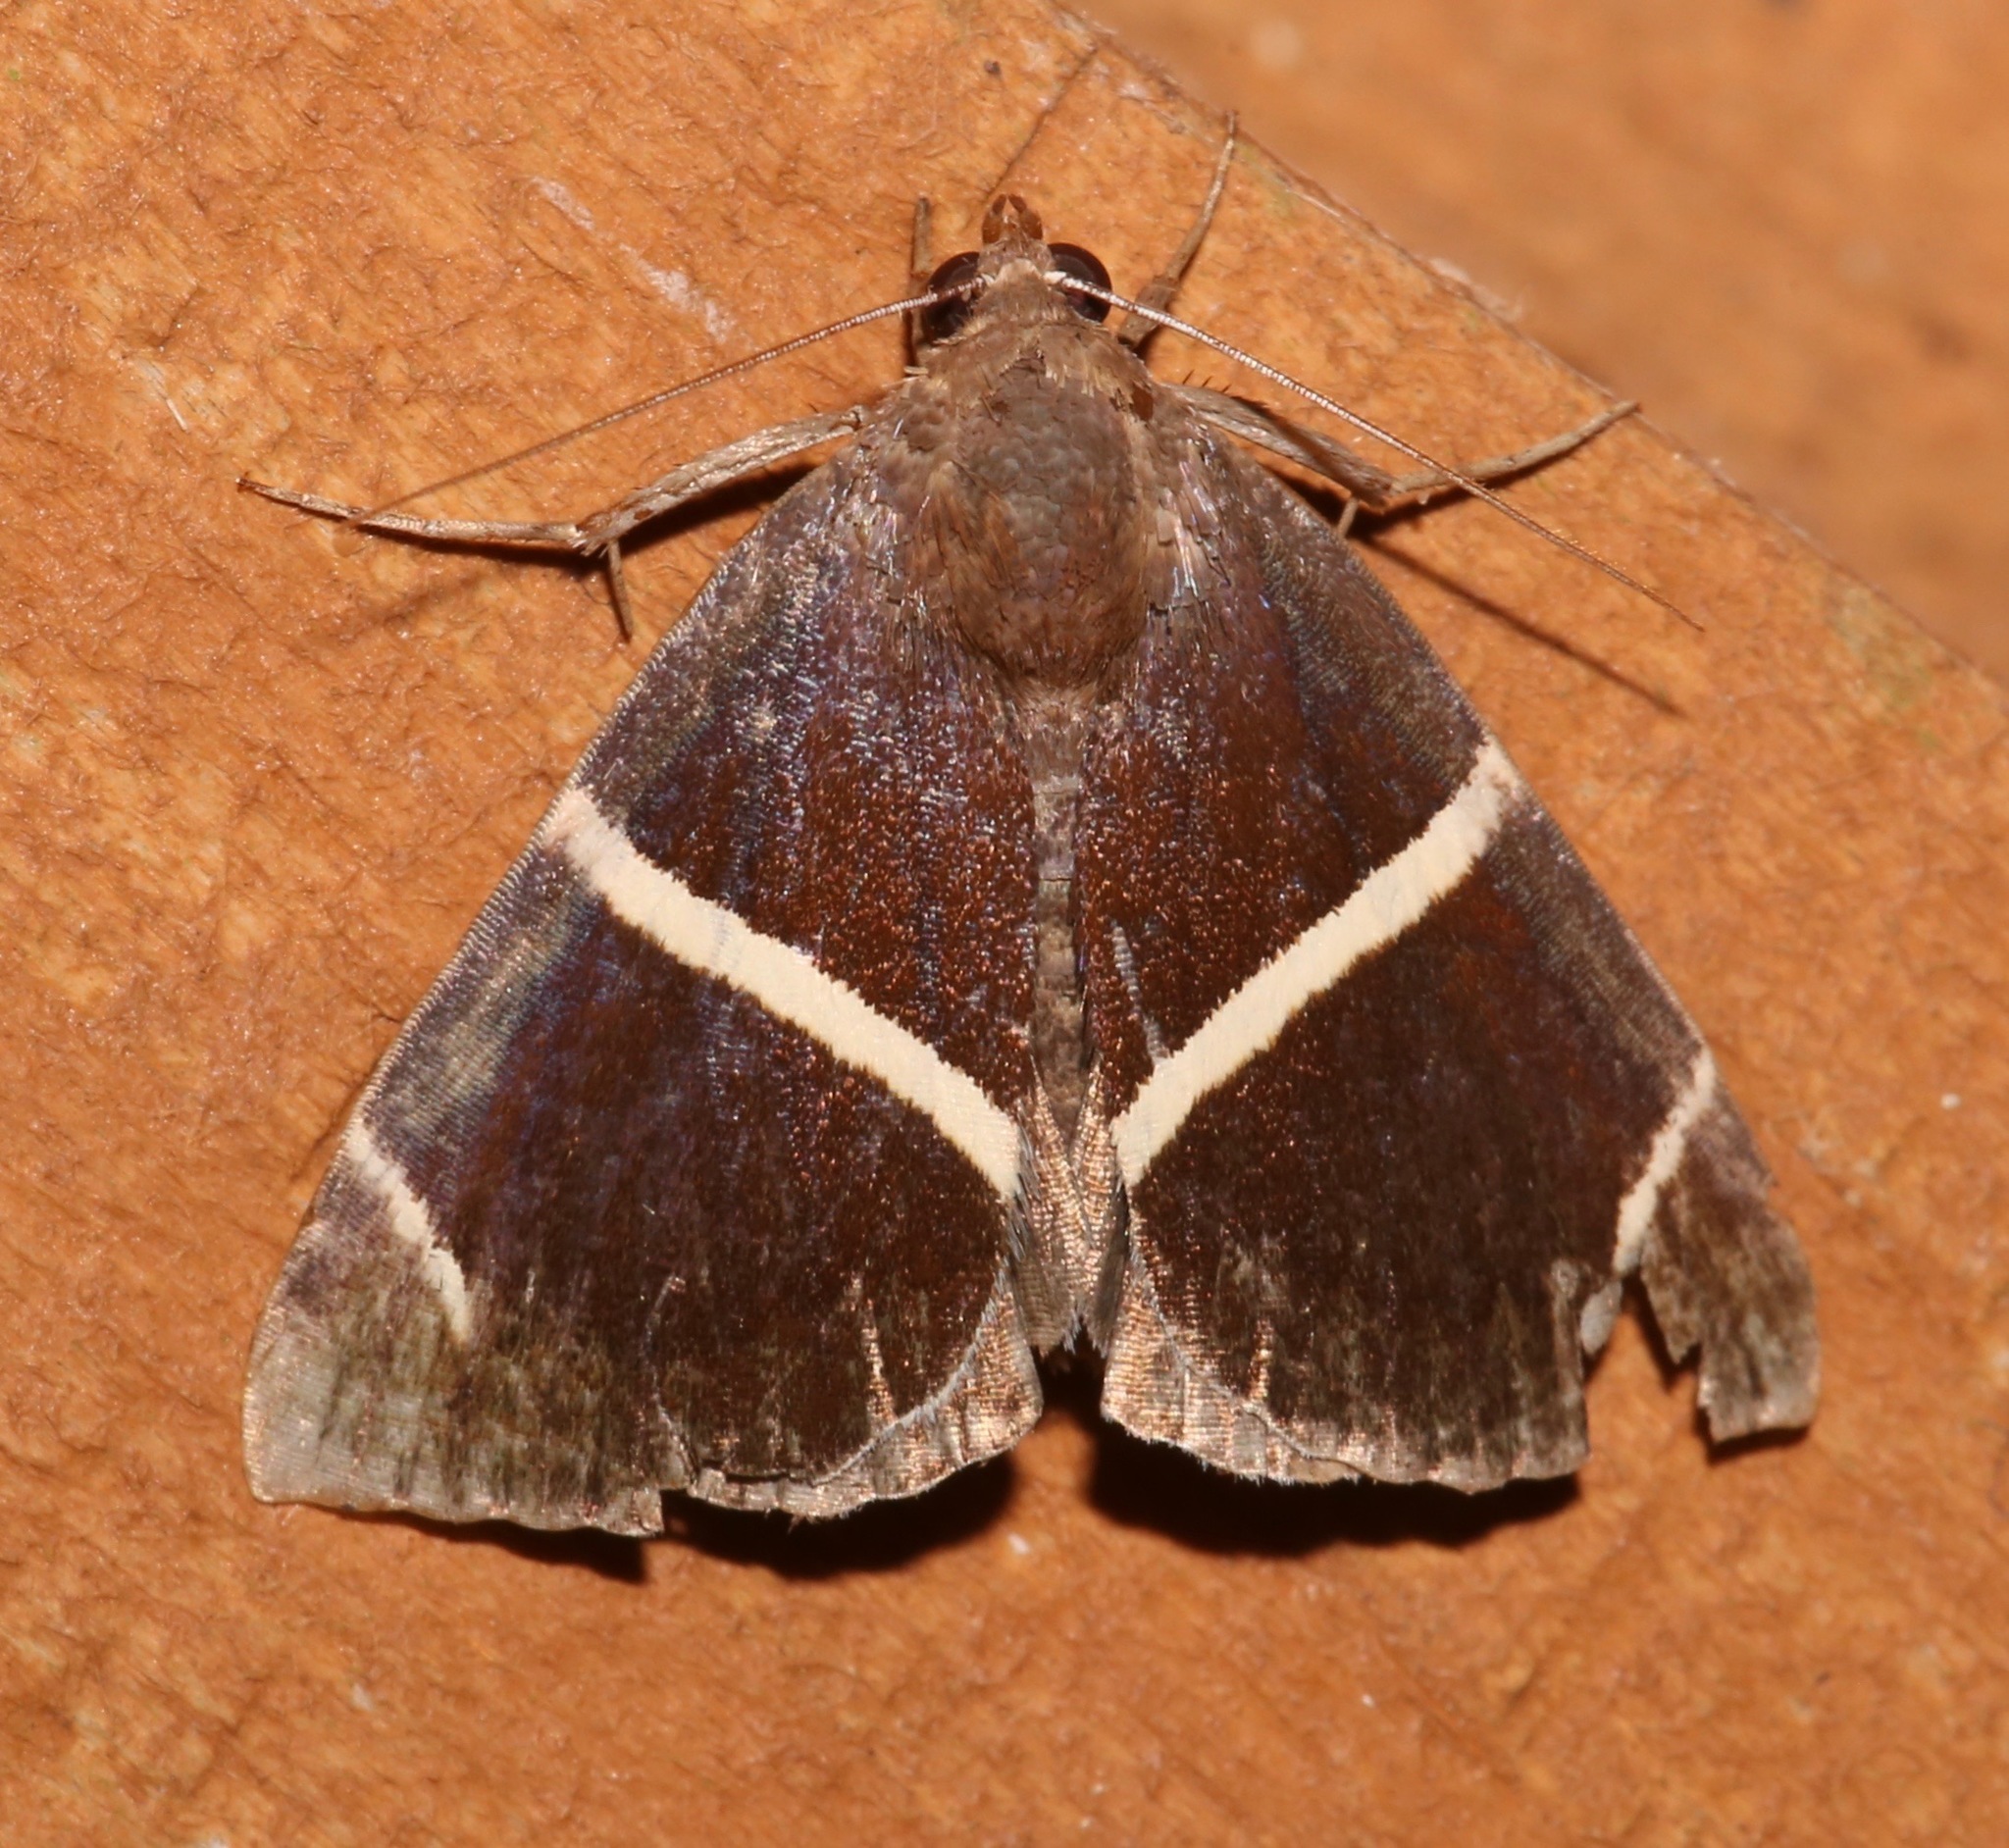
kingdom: Animalia
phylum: Arthropoda
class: Insecta
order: Lepidoptera
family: Erebidae
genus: Argyrostrotis
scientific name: Argyrostrotis anilis
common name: Short-lined chocolate
